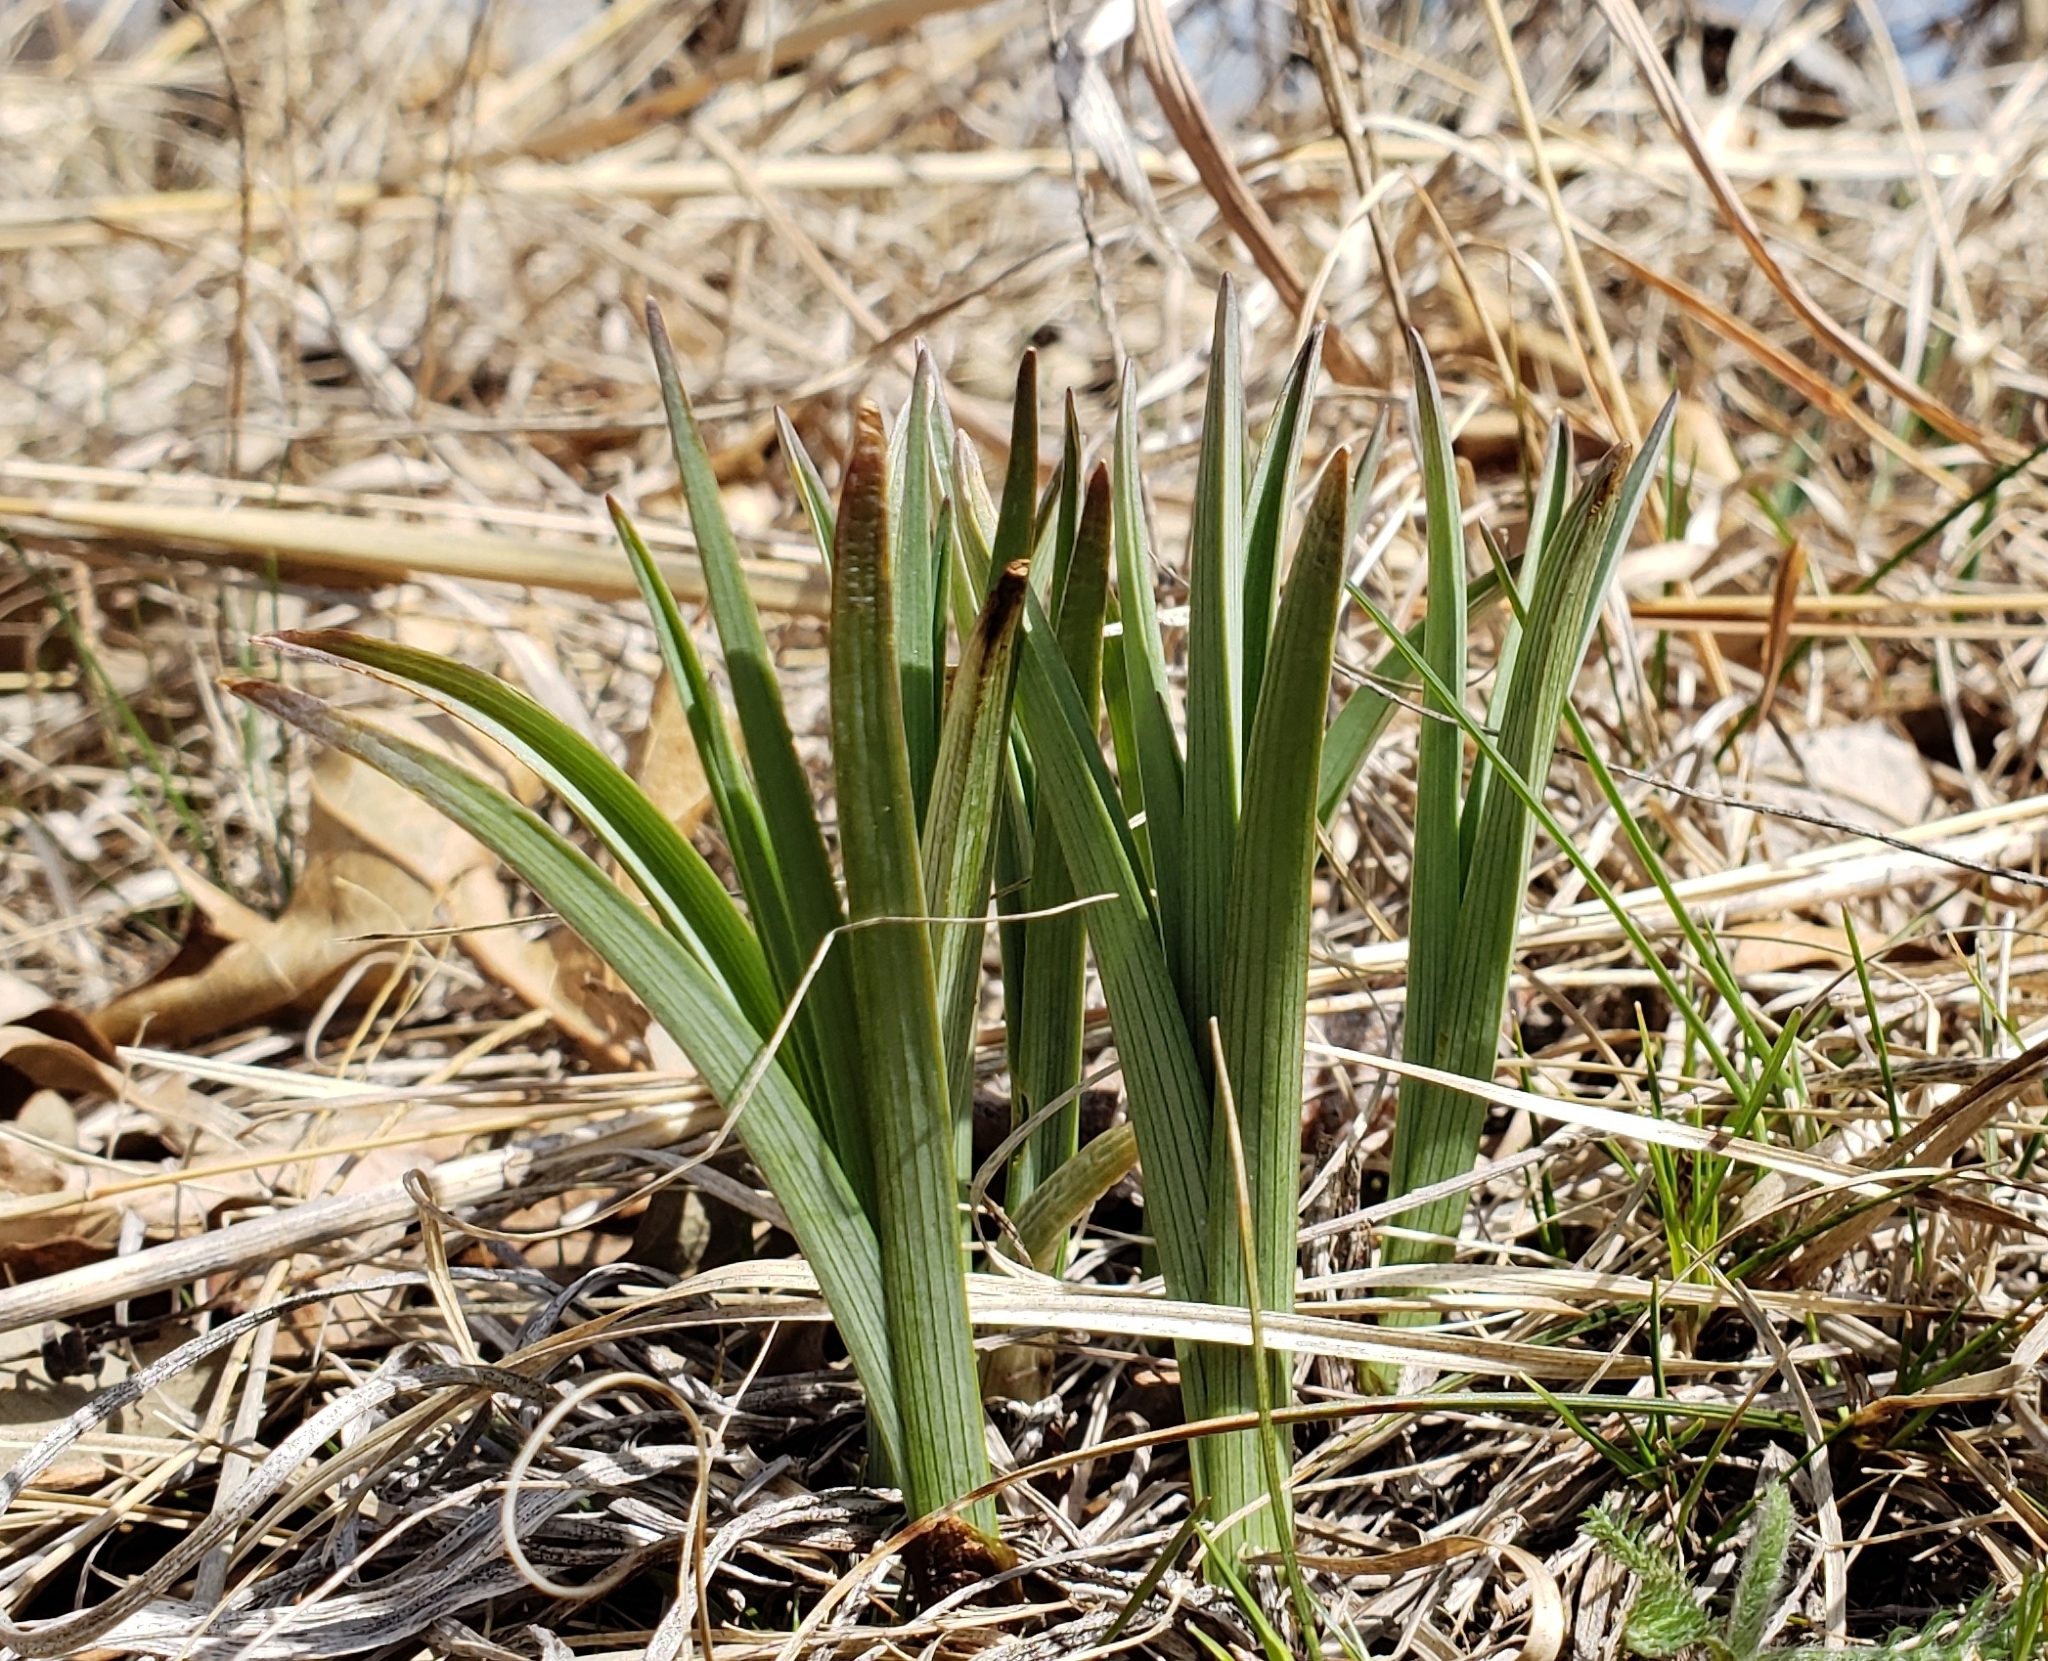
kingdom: Plantae
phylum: Tracheophyta
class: Liliopsida
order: Liliales
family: Melanthiaceae
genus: Anticlea
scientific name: Anticlea elegans
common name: Mountain death camas
